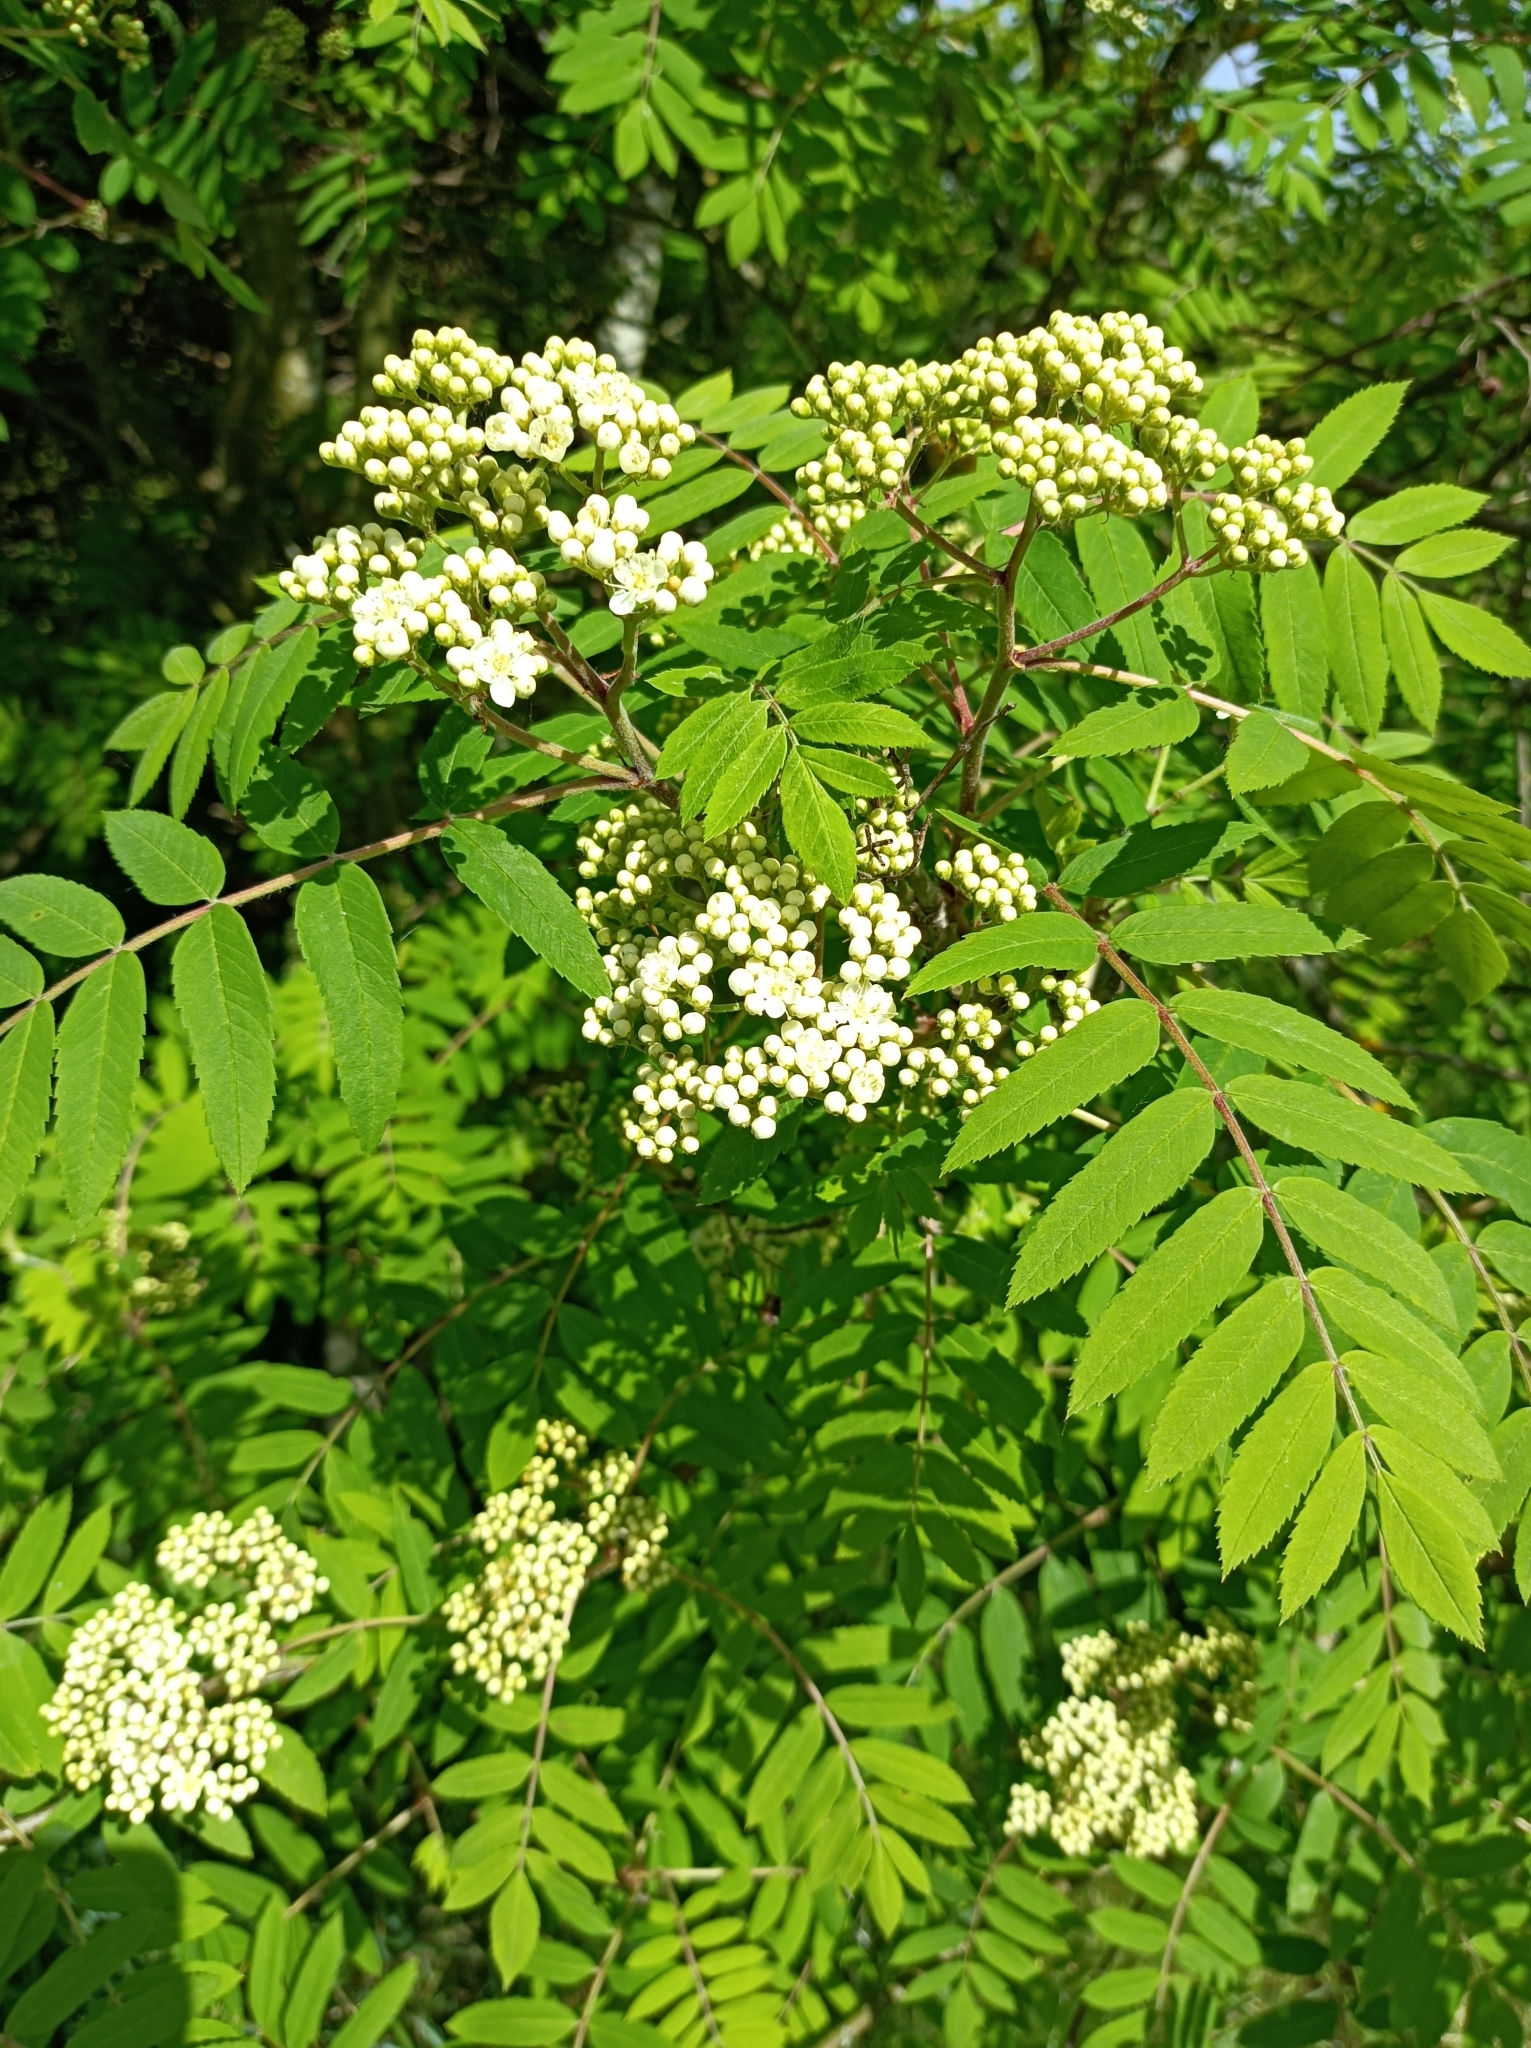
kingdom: Plantae
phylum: Tracheophyta
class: Magnoliopsida
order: Rosales
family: Rosaceae
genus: Sorbus
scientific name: Sorbus aucuparia
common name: Rowan
